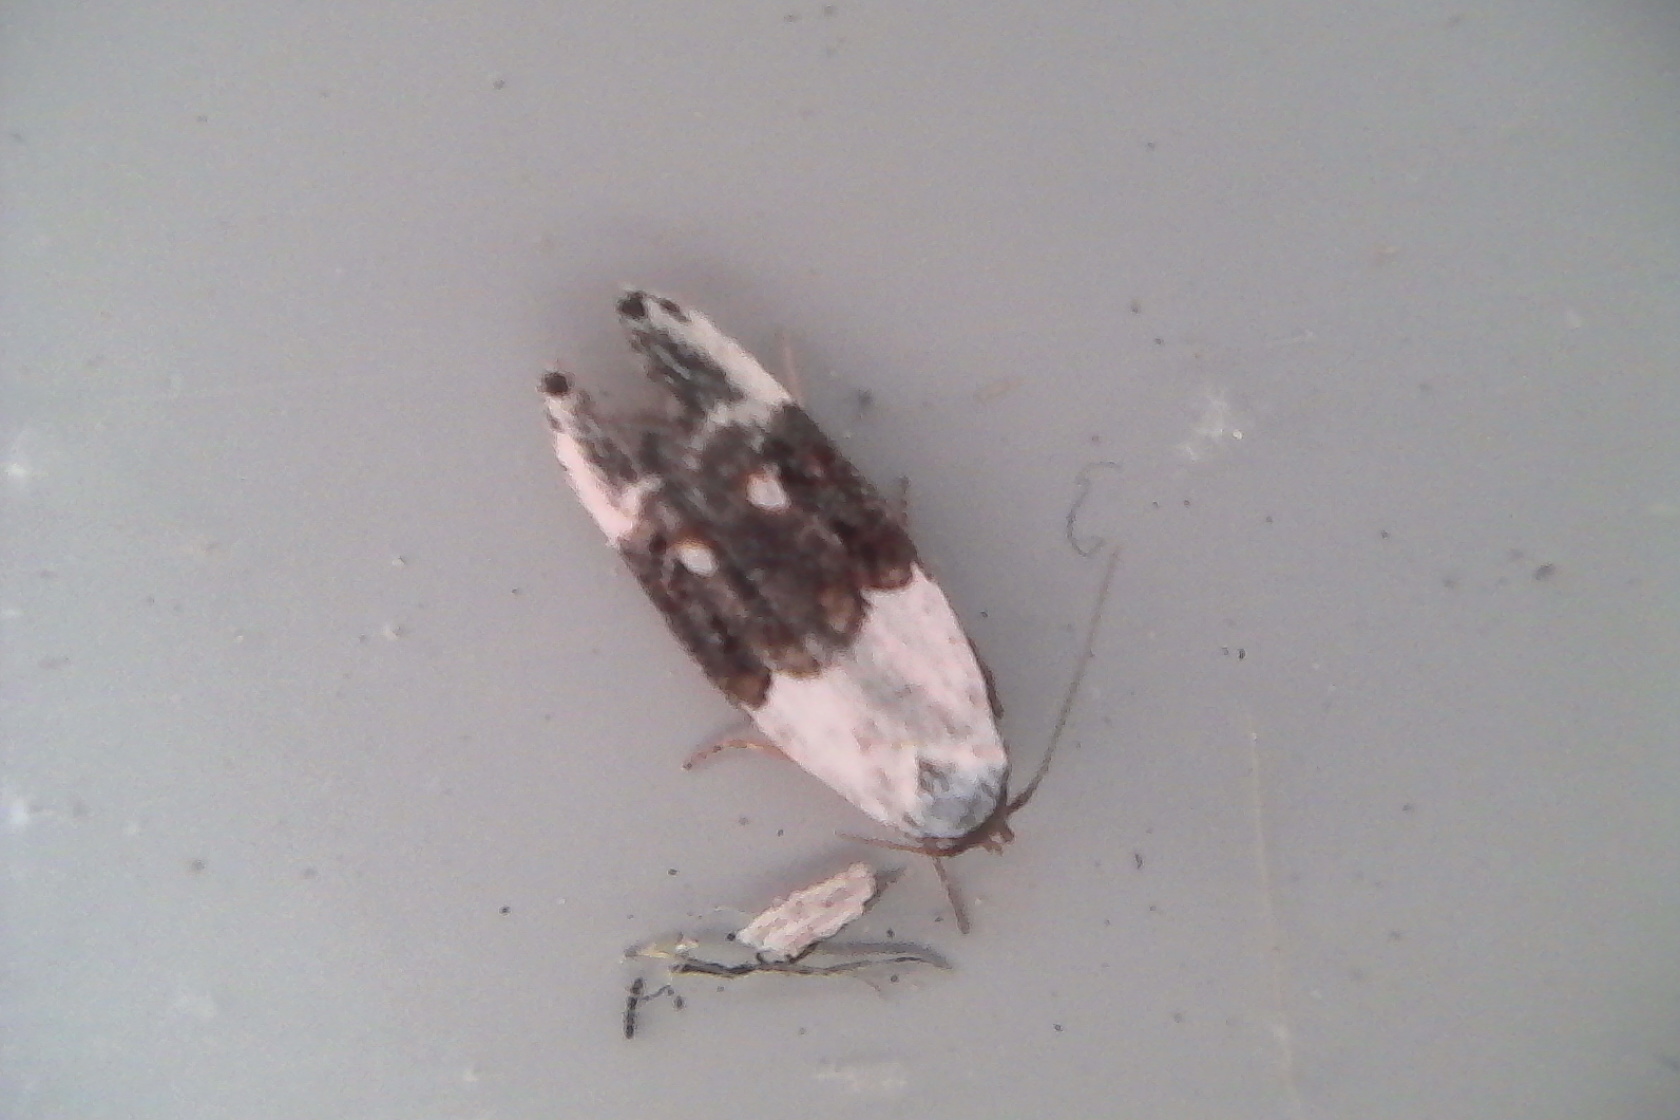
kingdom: Animalia
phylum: Arthropoda
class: Insecta
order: Lepidoptera
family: Oecophoridae
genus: Trachypepla
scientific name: Trachypepla amphileuca
